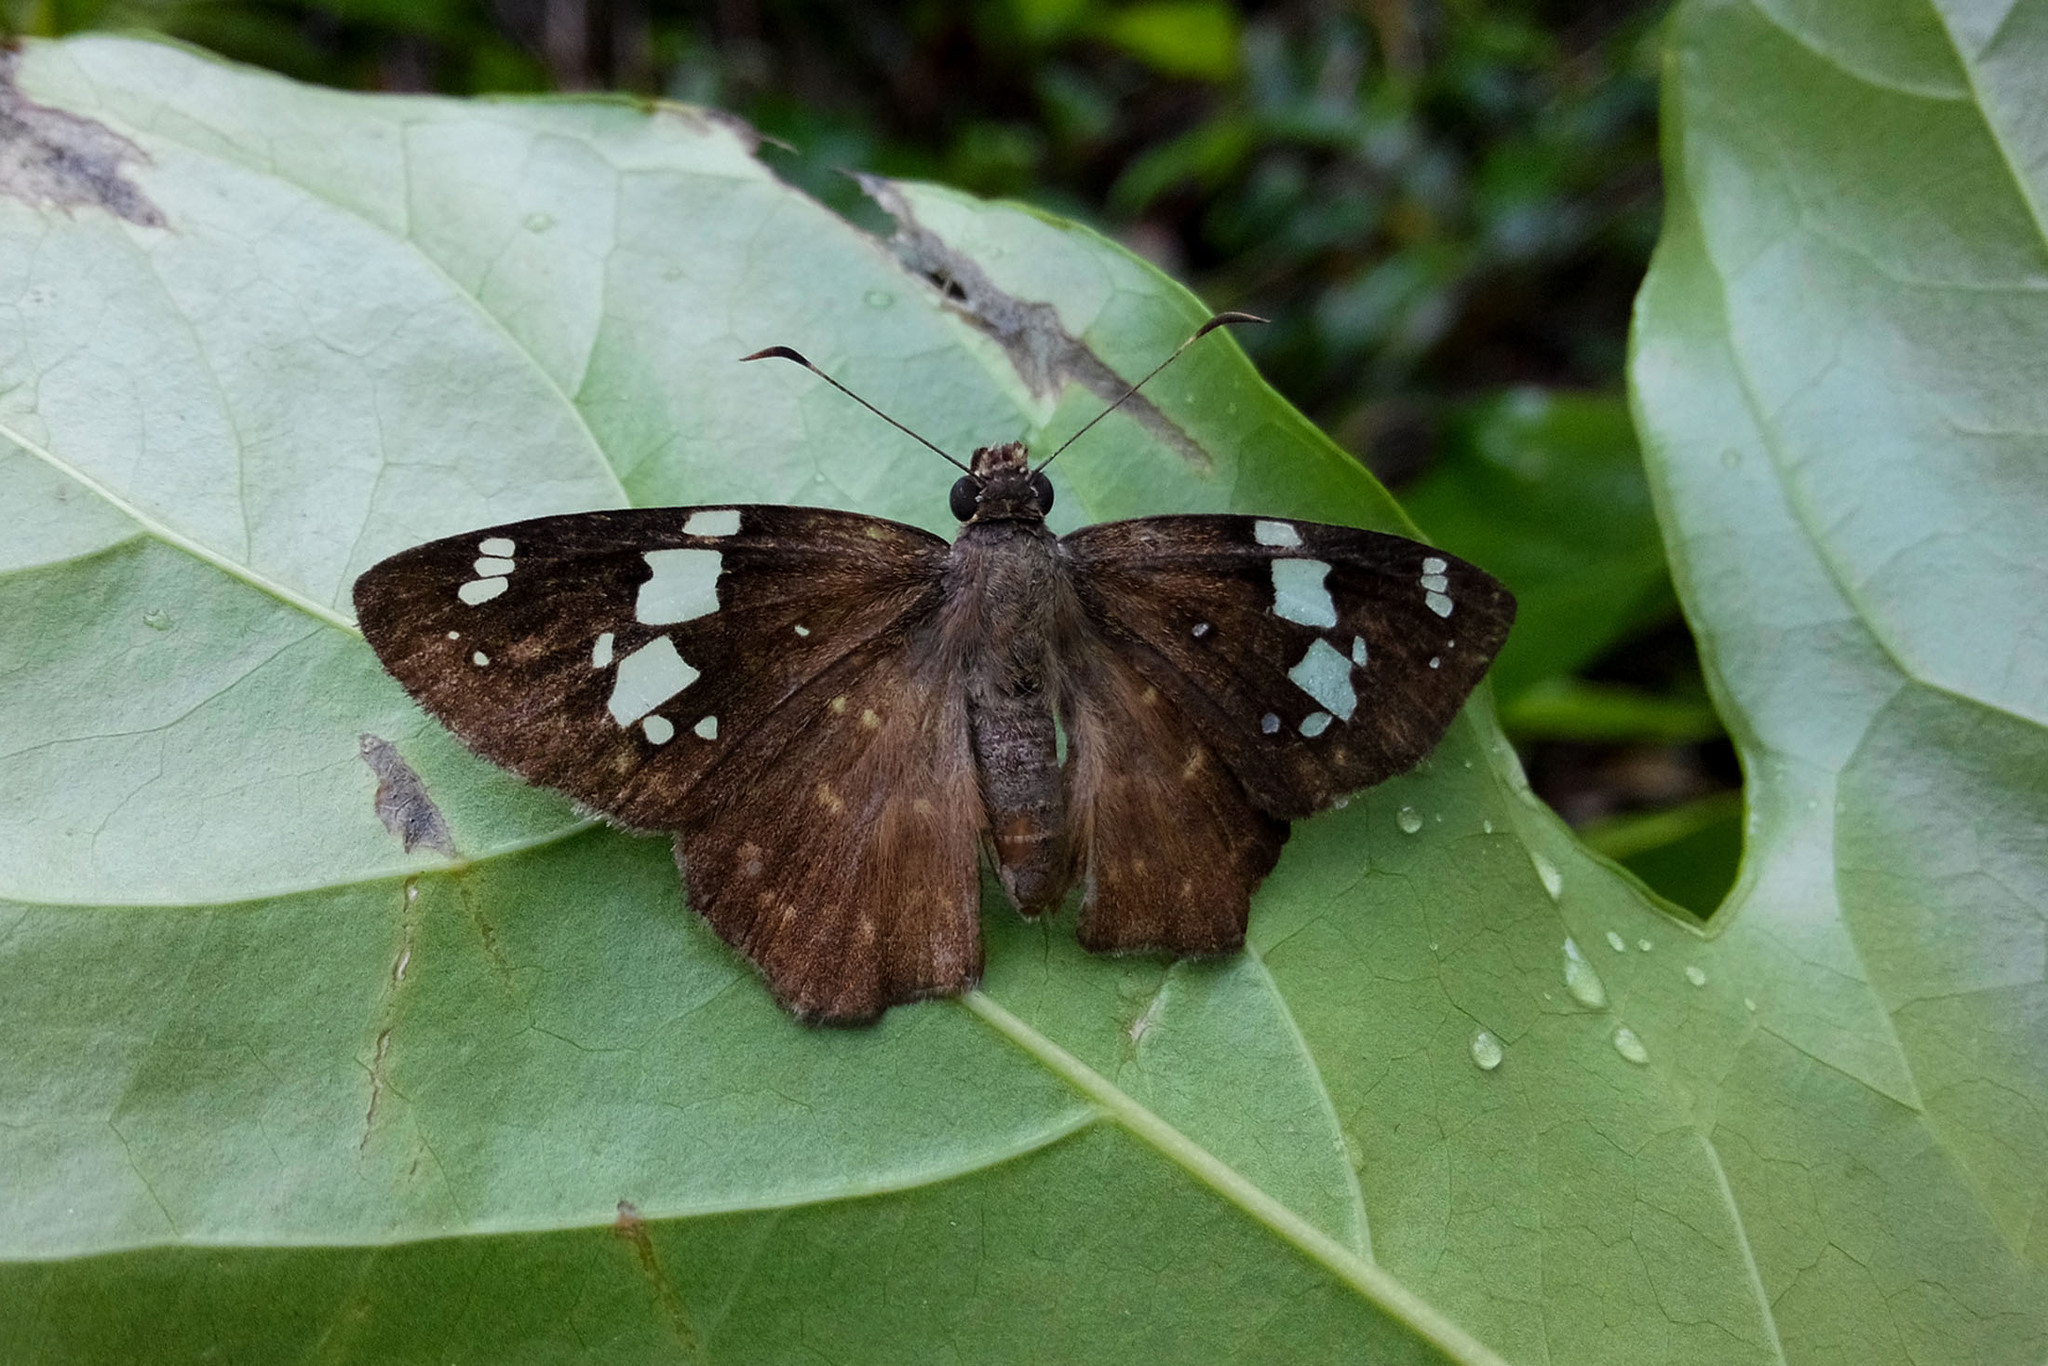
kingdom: Animalia
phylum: Arthropoda
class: Insecta
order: Lepidoptera
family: Hesperiidae
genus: Celaenorrhinus
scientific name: Celaenorrhinus eligius
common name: Eligius flat
